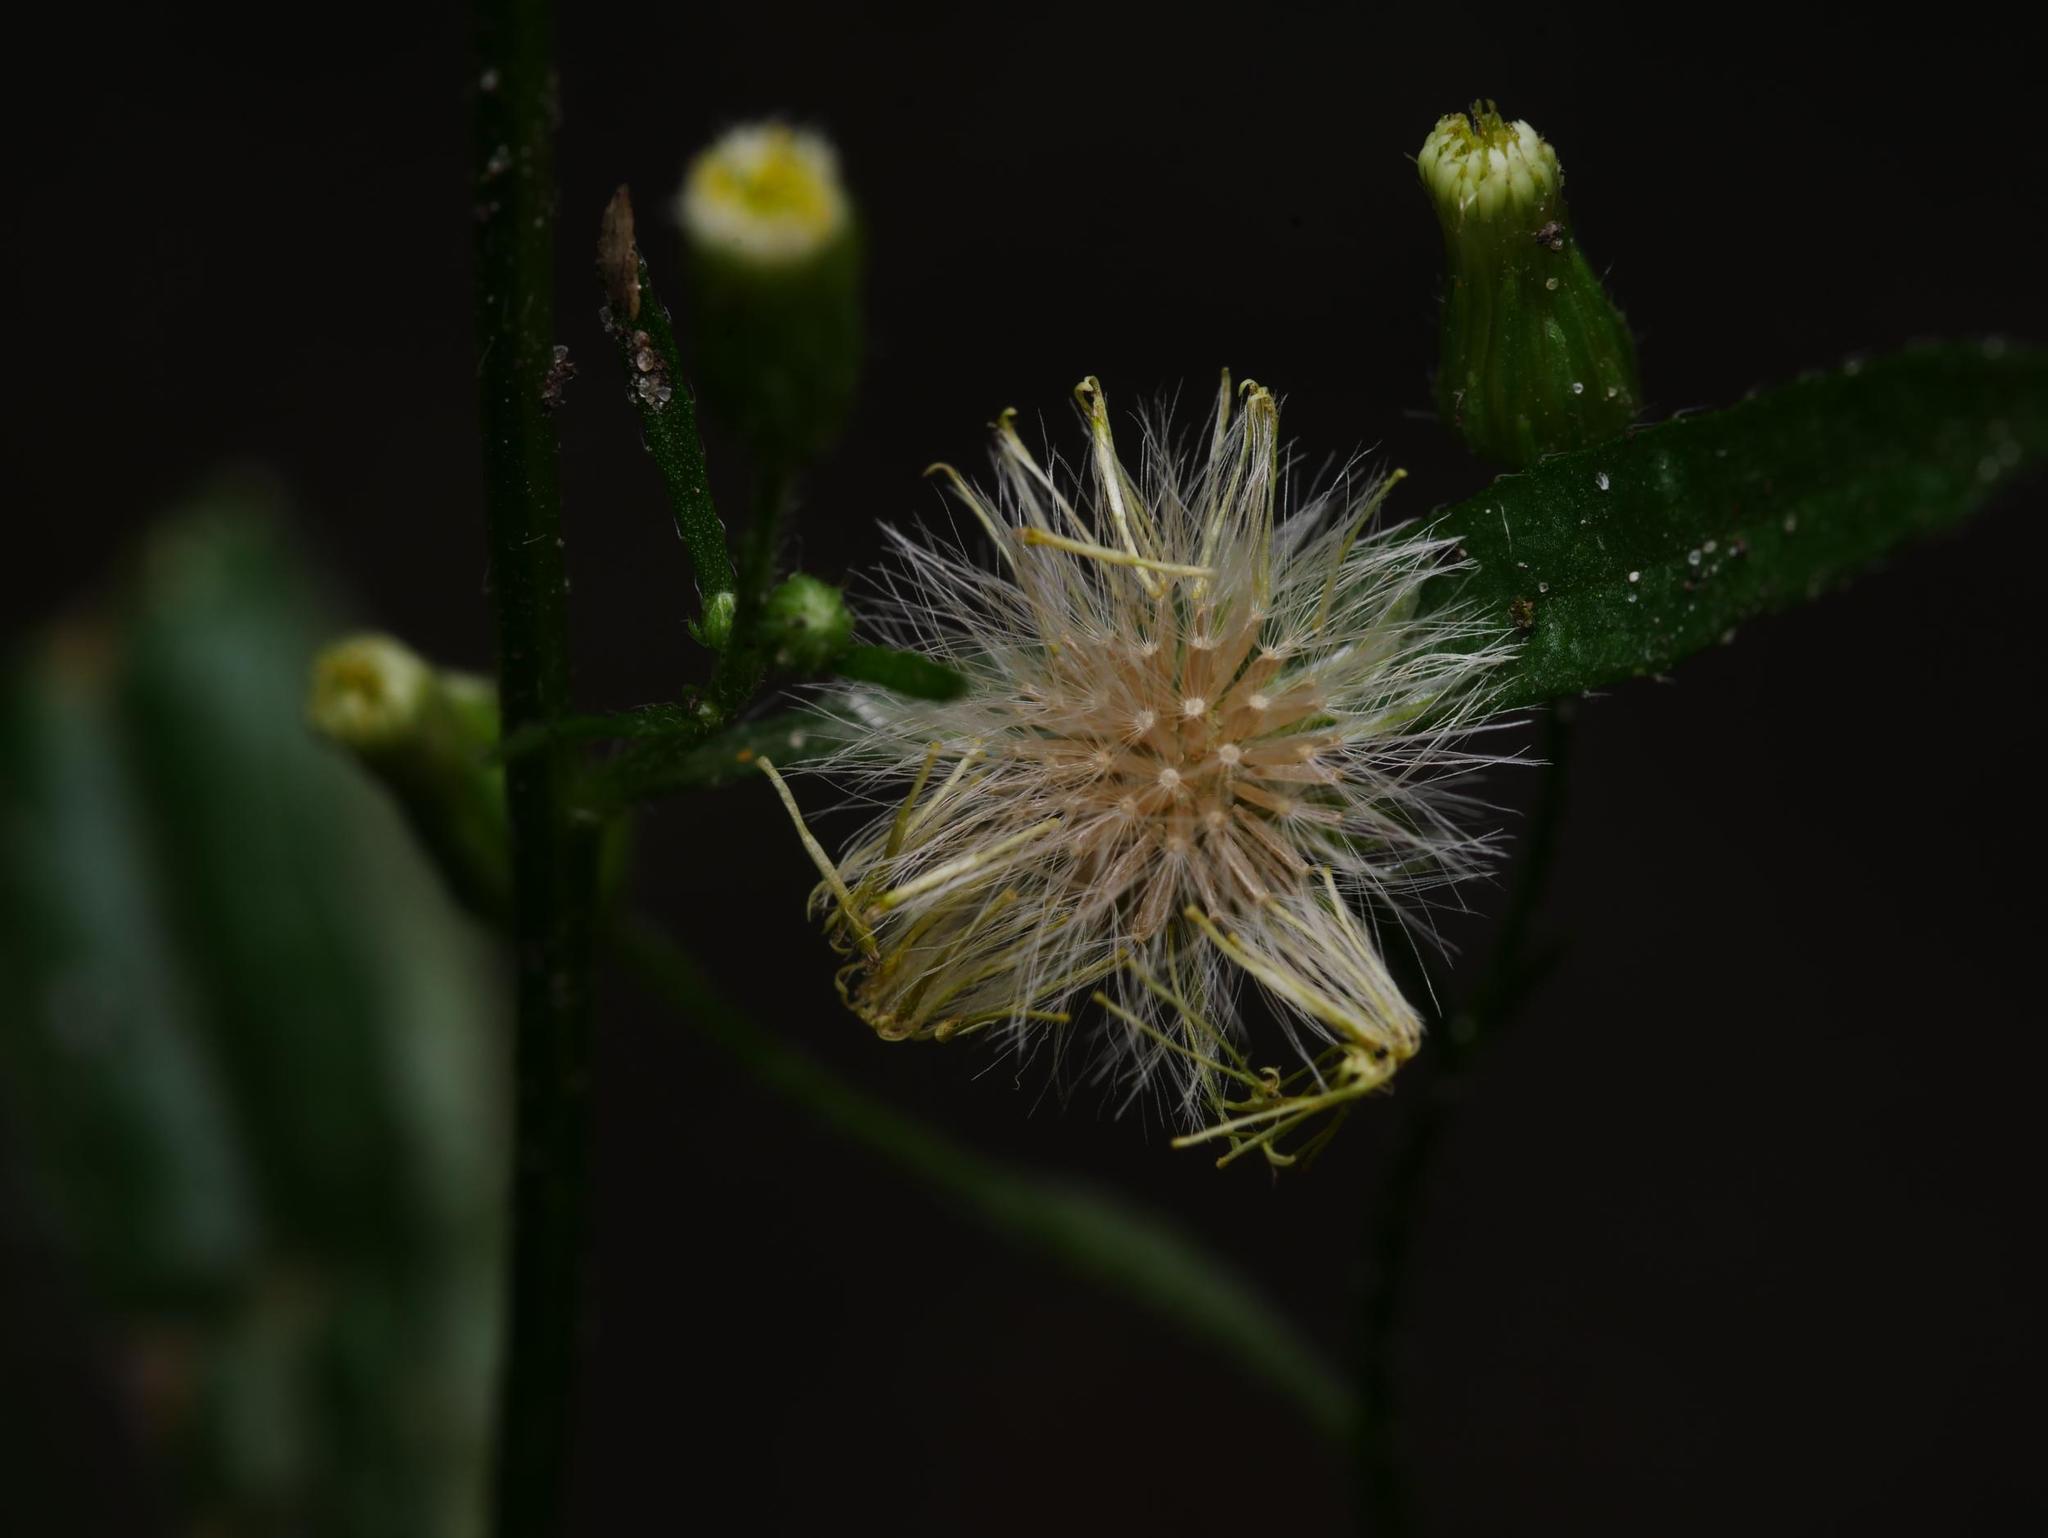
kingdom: Plantae
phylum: Tracheophyta
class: Magnoliopsida
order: Asterales
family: Asteraceae
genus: Erigeron
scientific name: Erigeron canadensis
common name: Canadian fleabane
